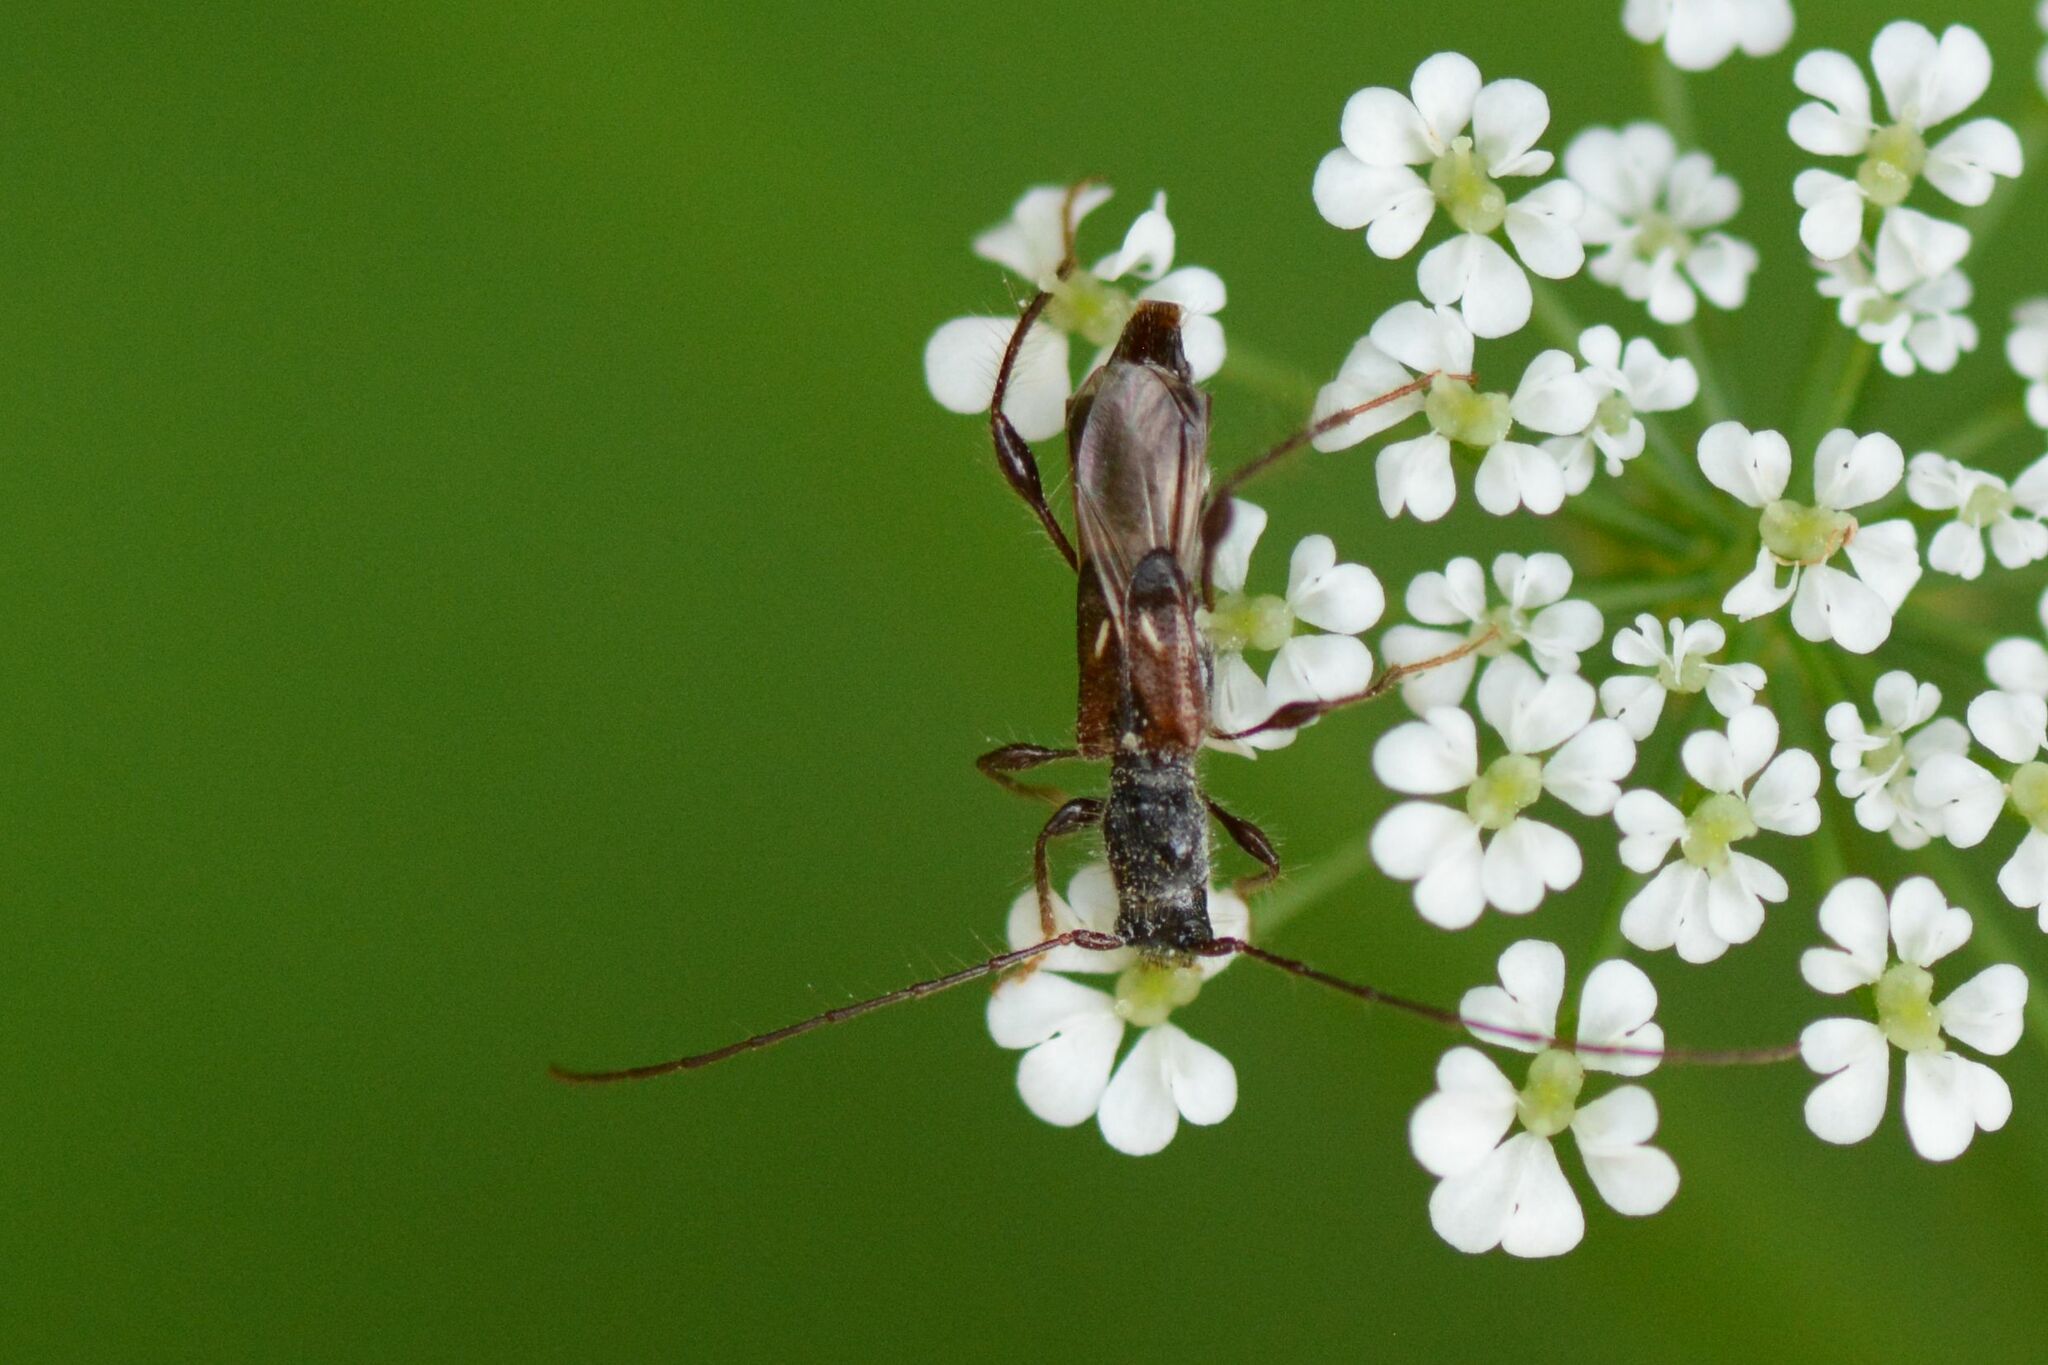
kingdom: Animalia
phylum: Arthropoda
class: Insecta
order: Coleoptera
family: Cerambycidae
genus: Molorchus
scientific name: Molorchus minor
